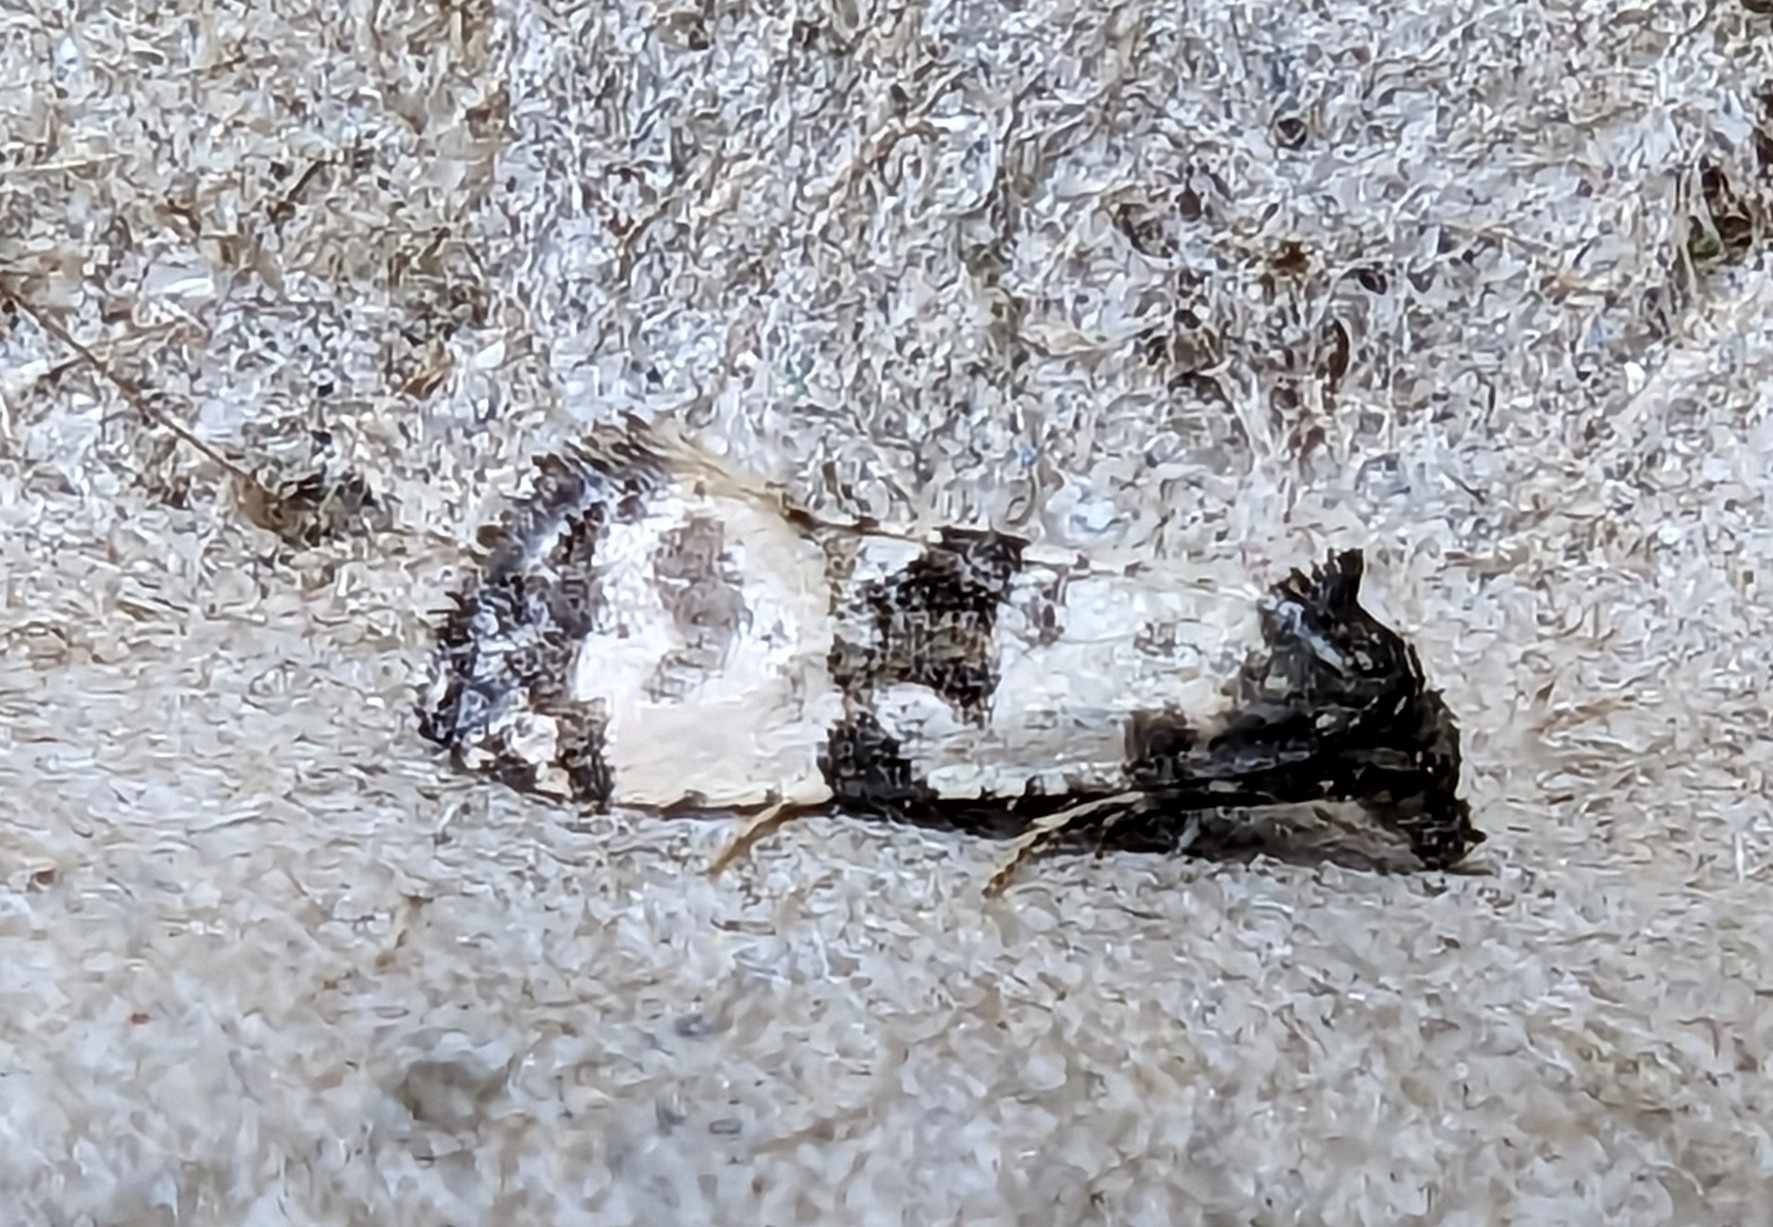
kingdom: Animalia
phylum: Arthropoda
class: Insecta
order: Lepidoptera
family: Tortricidae
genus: Cochylis
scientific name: Cochylis atricapitana
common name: Tortricid moth
